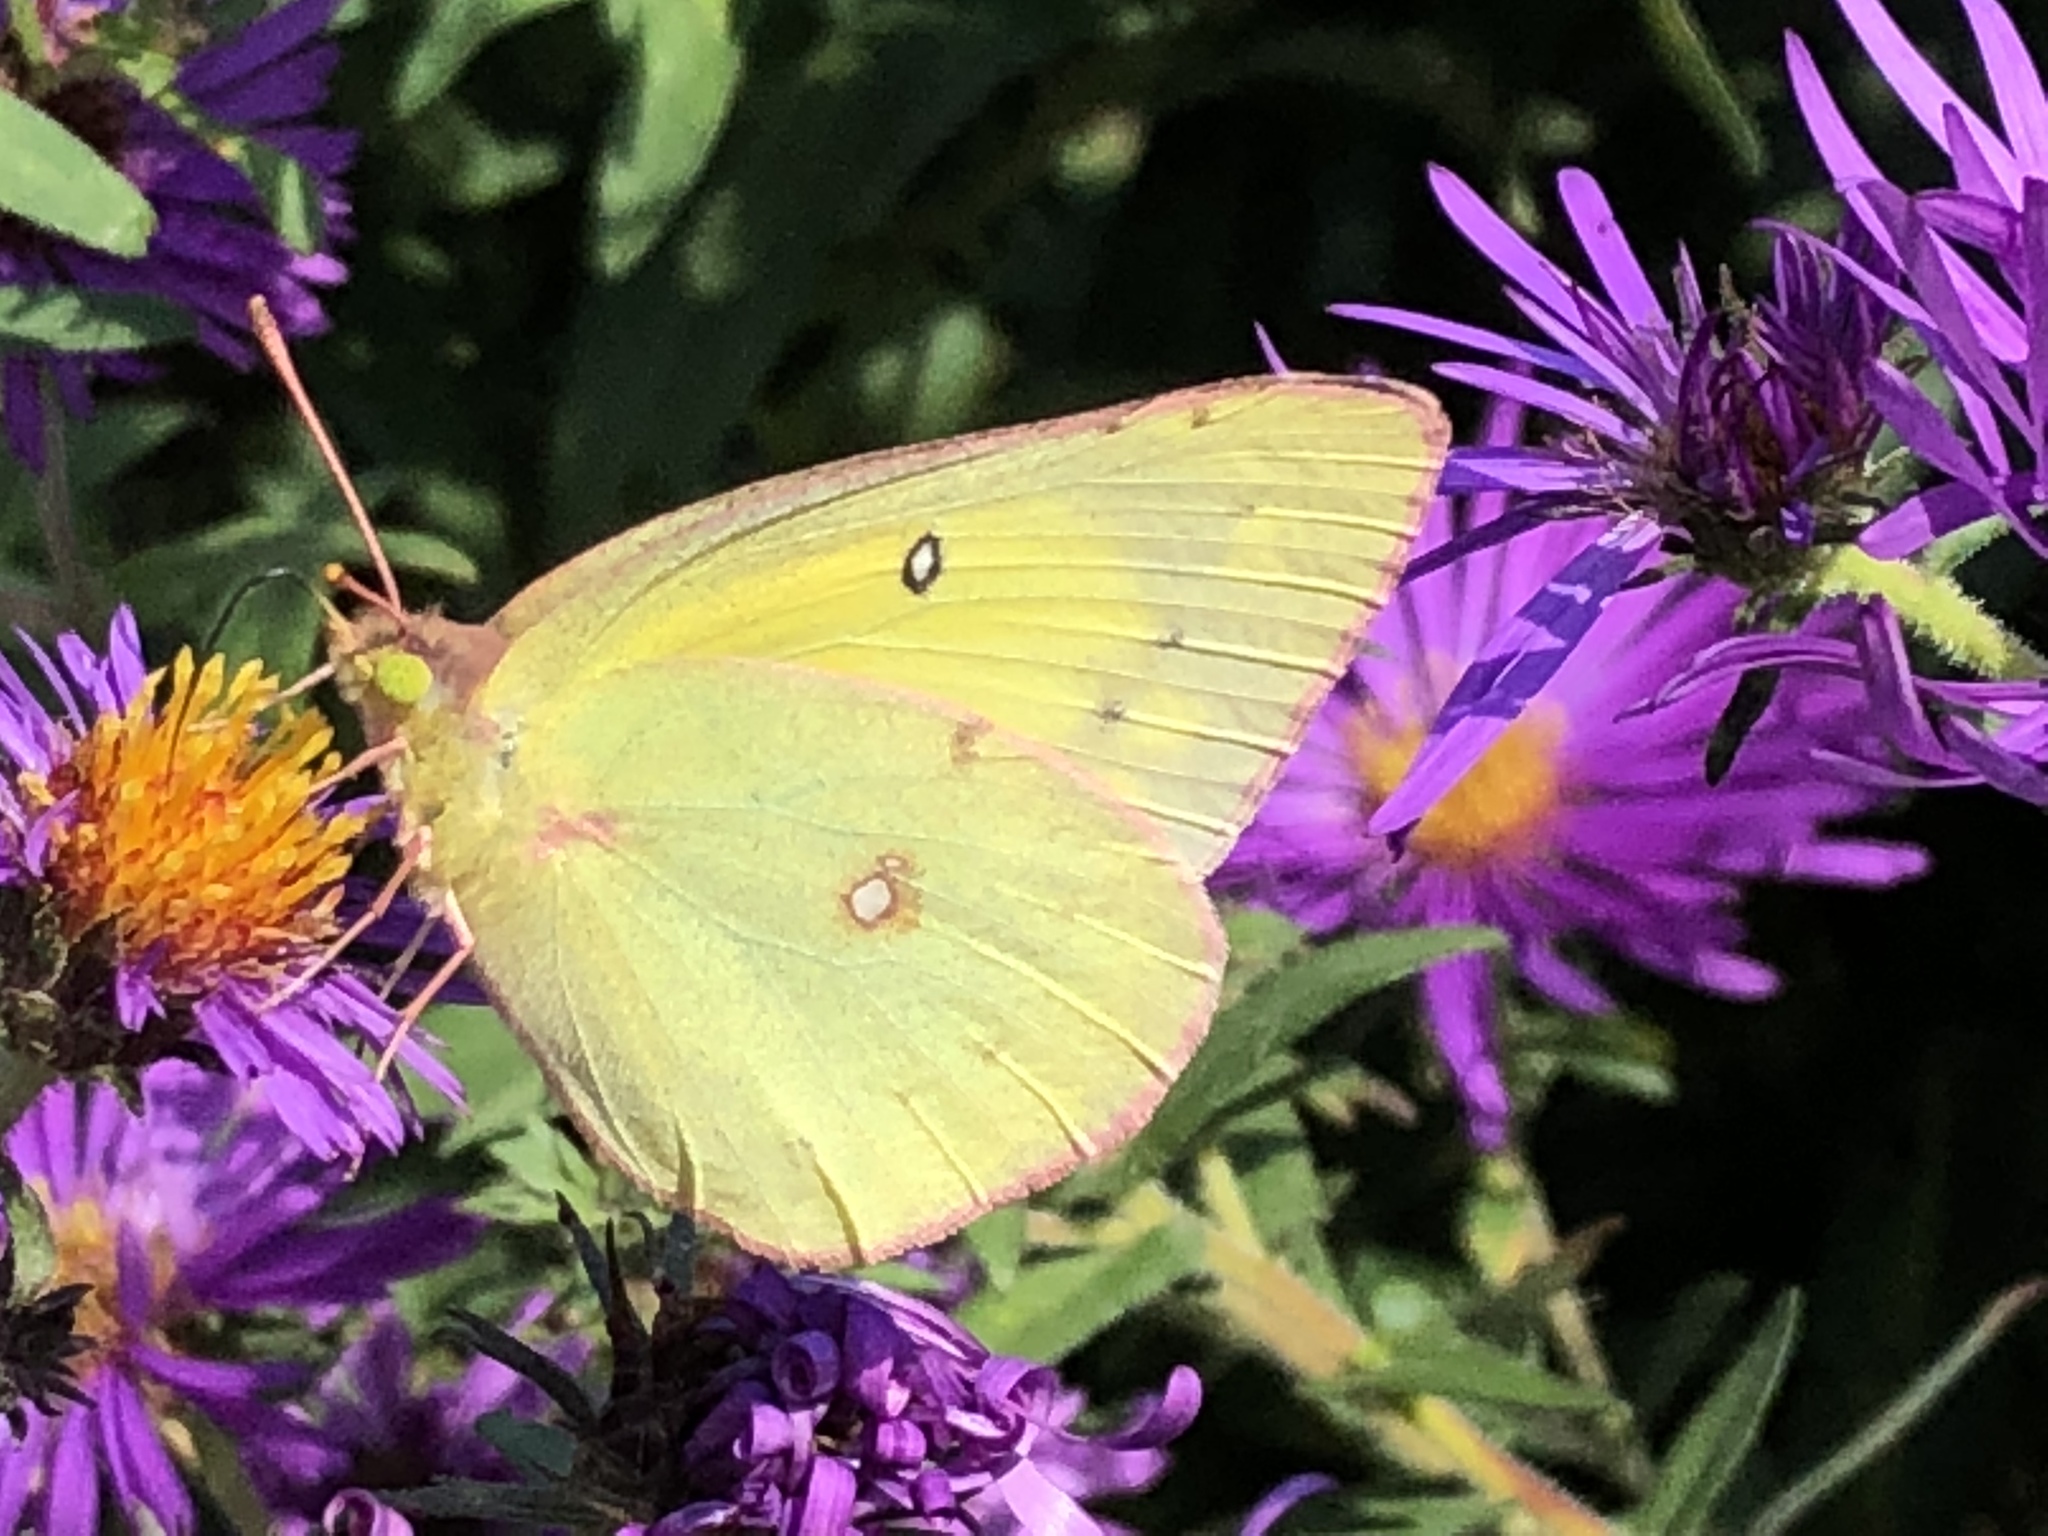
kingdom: Animalia
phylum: Arthropoda
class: Insecta
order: Lepidoptera
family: Pieridae
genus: Colias
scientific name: Colias eurytheme
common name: Alfalfa butterfly
